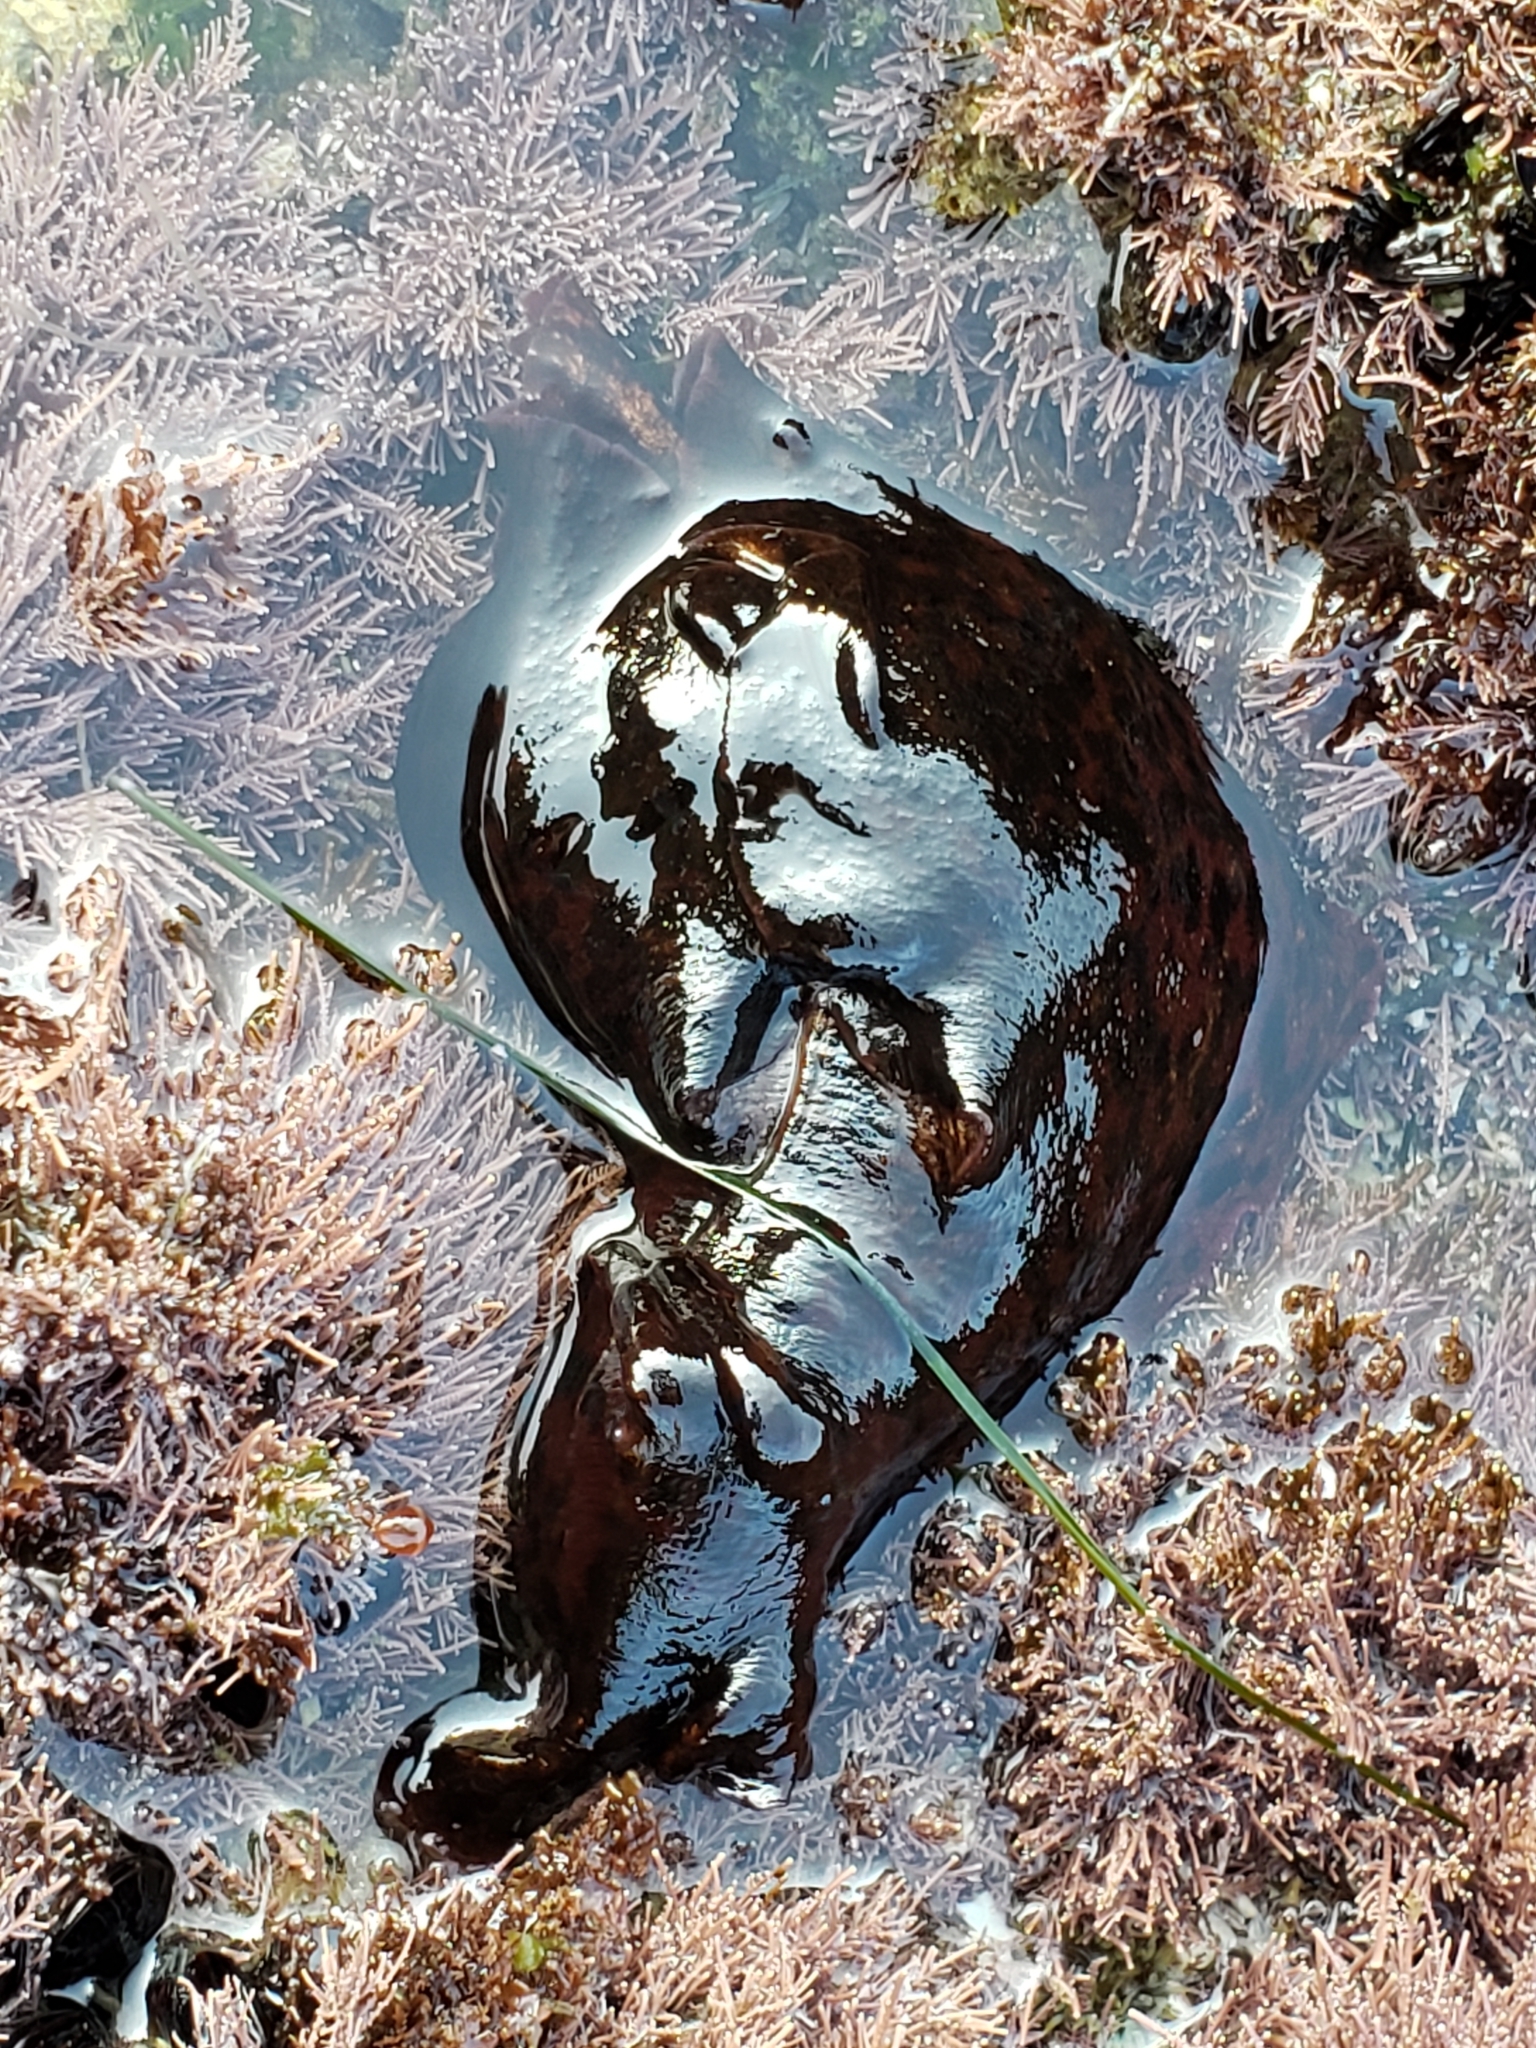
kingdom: Animalia
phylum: Mollusca
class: Gastropoda
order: Aplysiida
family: Aplysiidae
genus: Aplysia
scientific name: Aplysia californica
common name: California seahare
